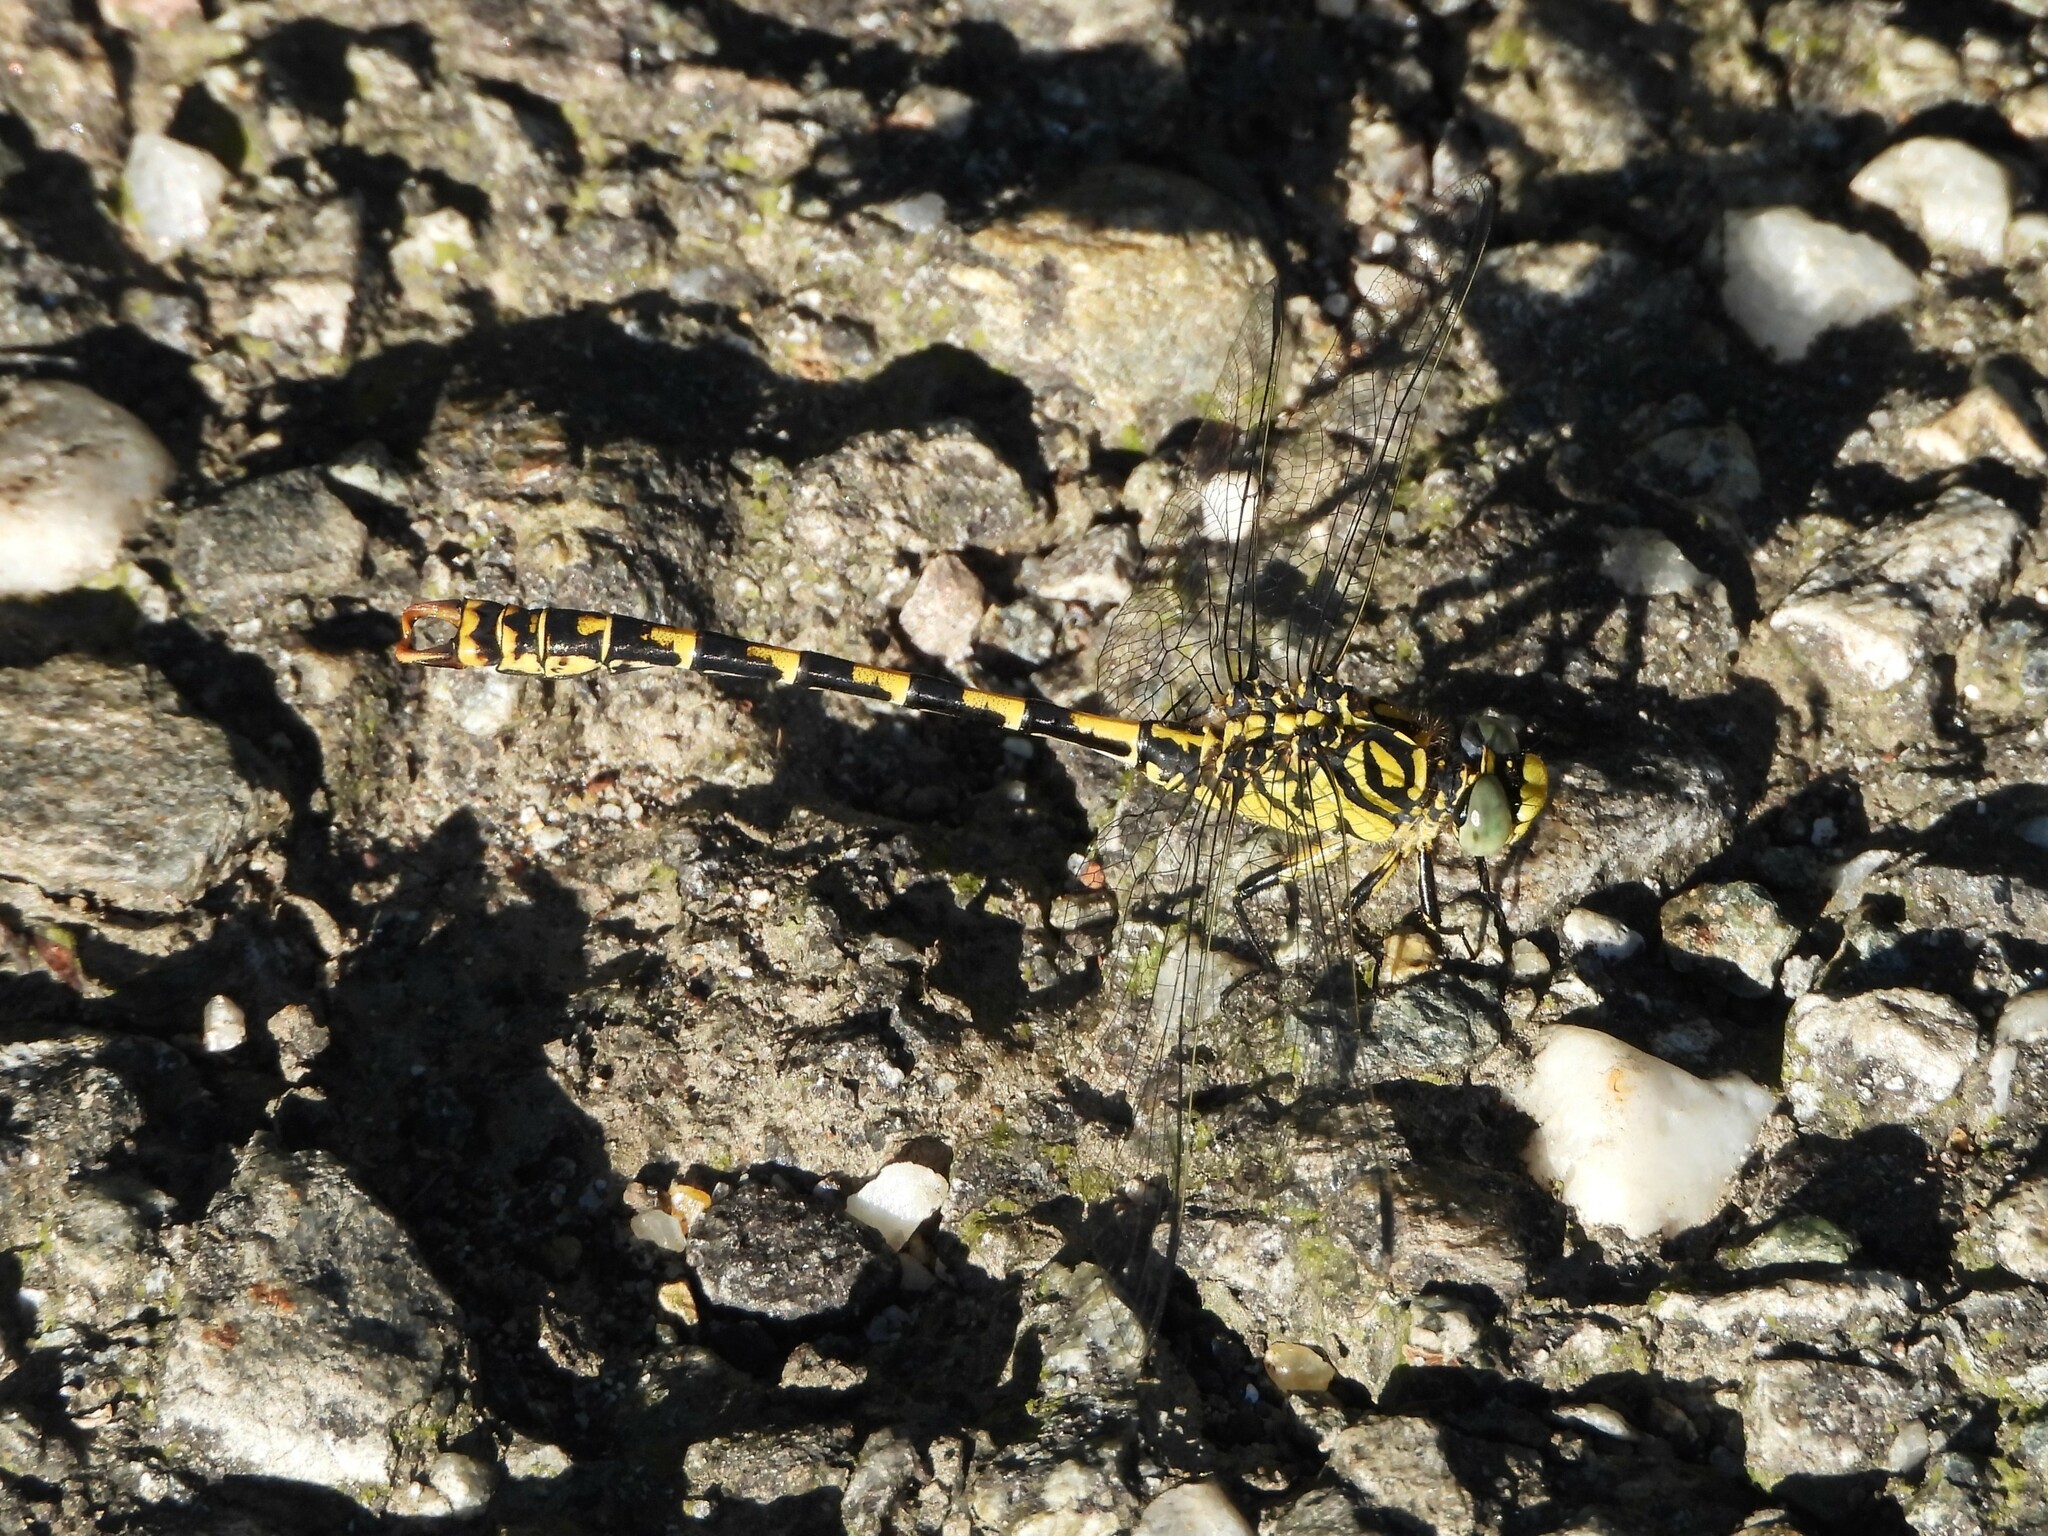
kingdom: Animalia
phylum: Arthropoda
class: Insecta
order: Odonata
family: Gomphidae
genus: Onychogomphus
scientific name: Onychogomphus forcipatus
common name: Small pincertail
